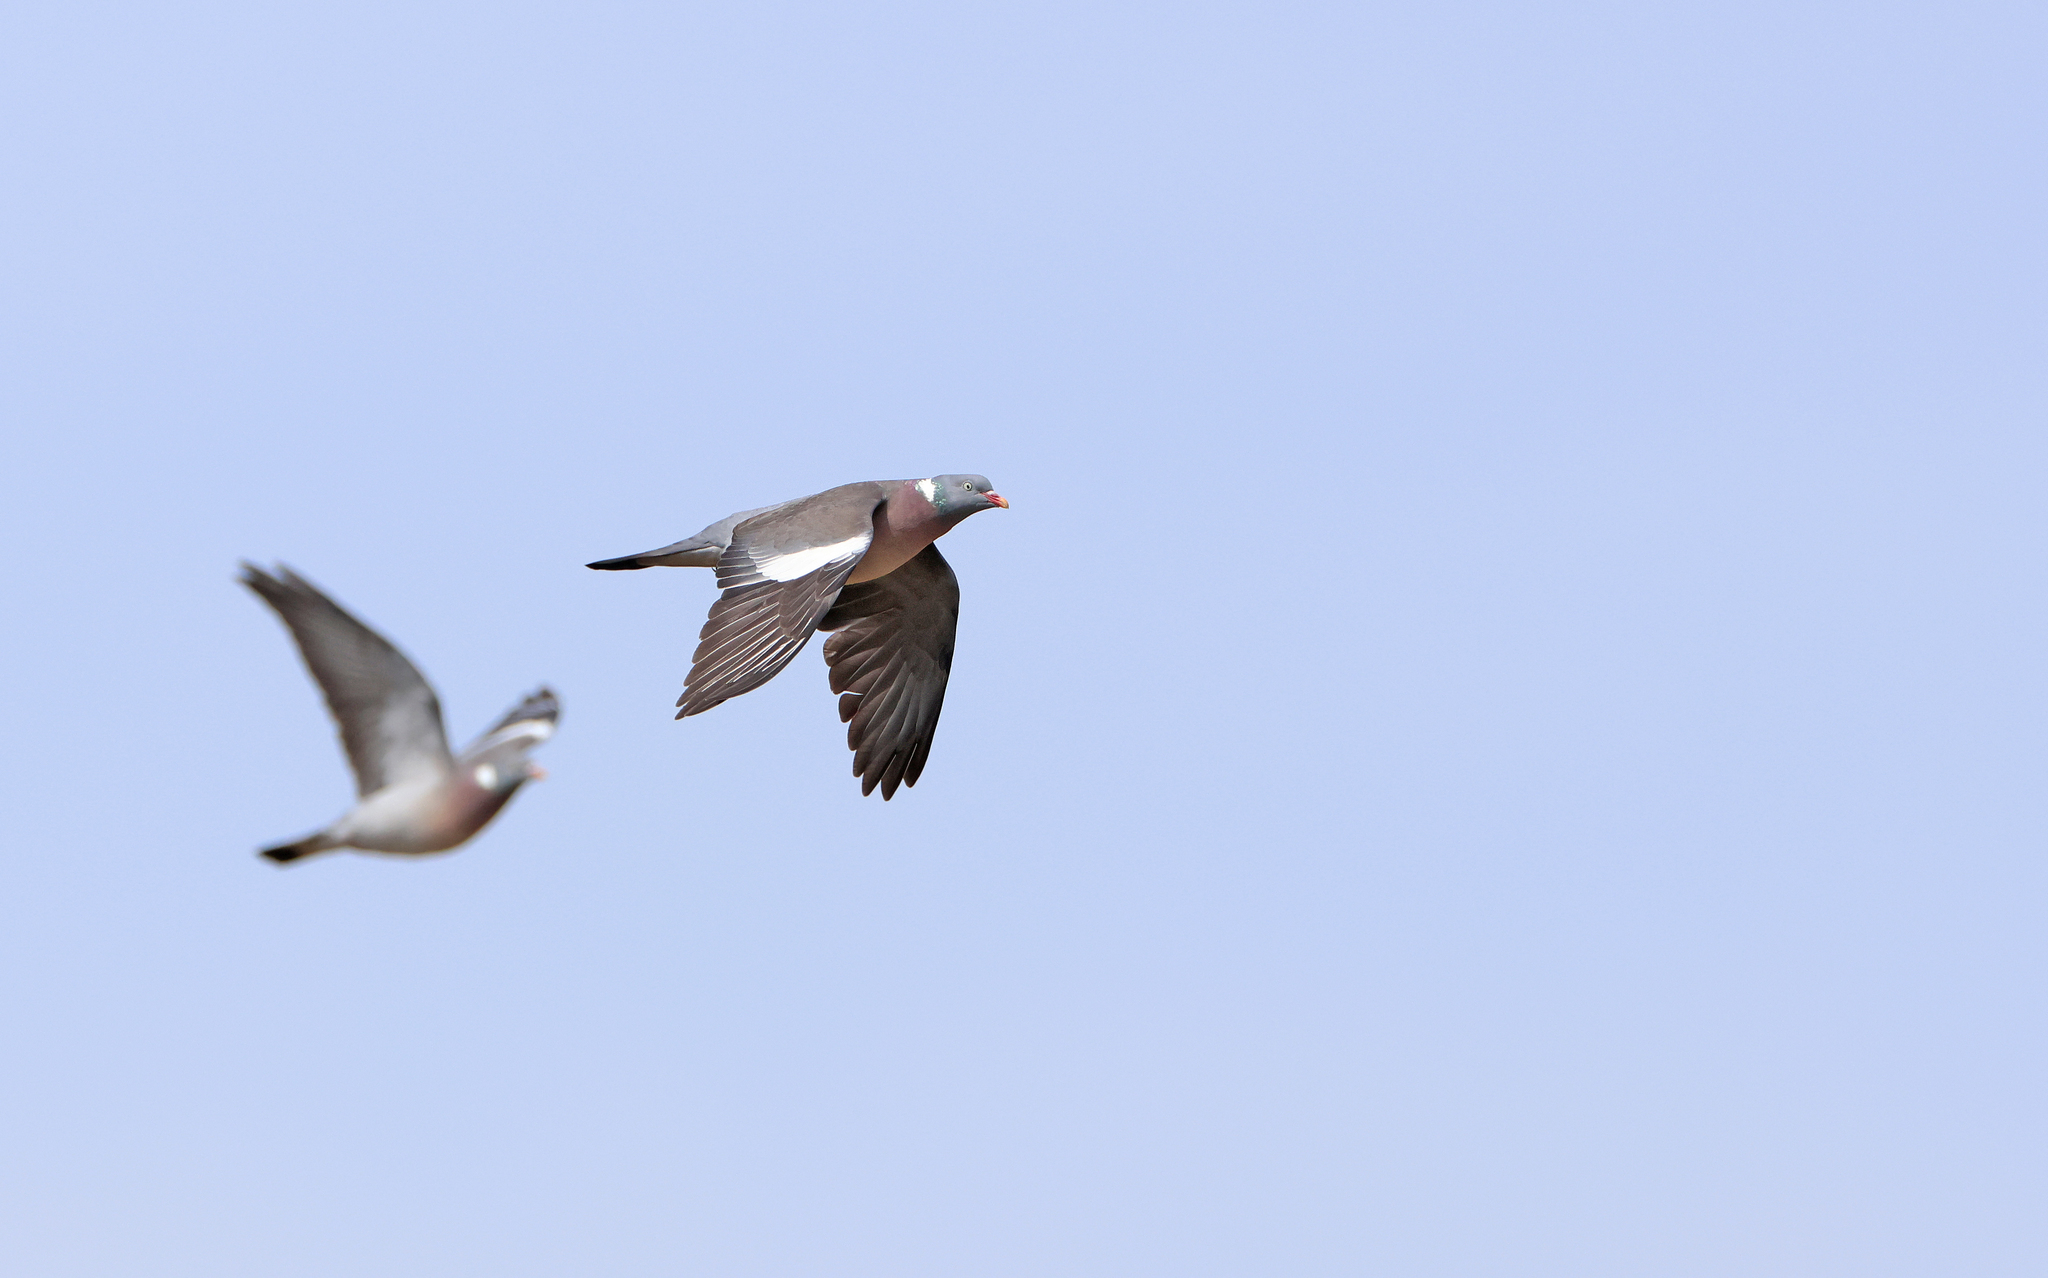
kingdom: Animalia
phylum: Chordata
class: Aves
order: Columbiformes
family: Columbidae
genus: Columba
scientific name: Columba palumbus
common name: Common wood pigeon
